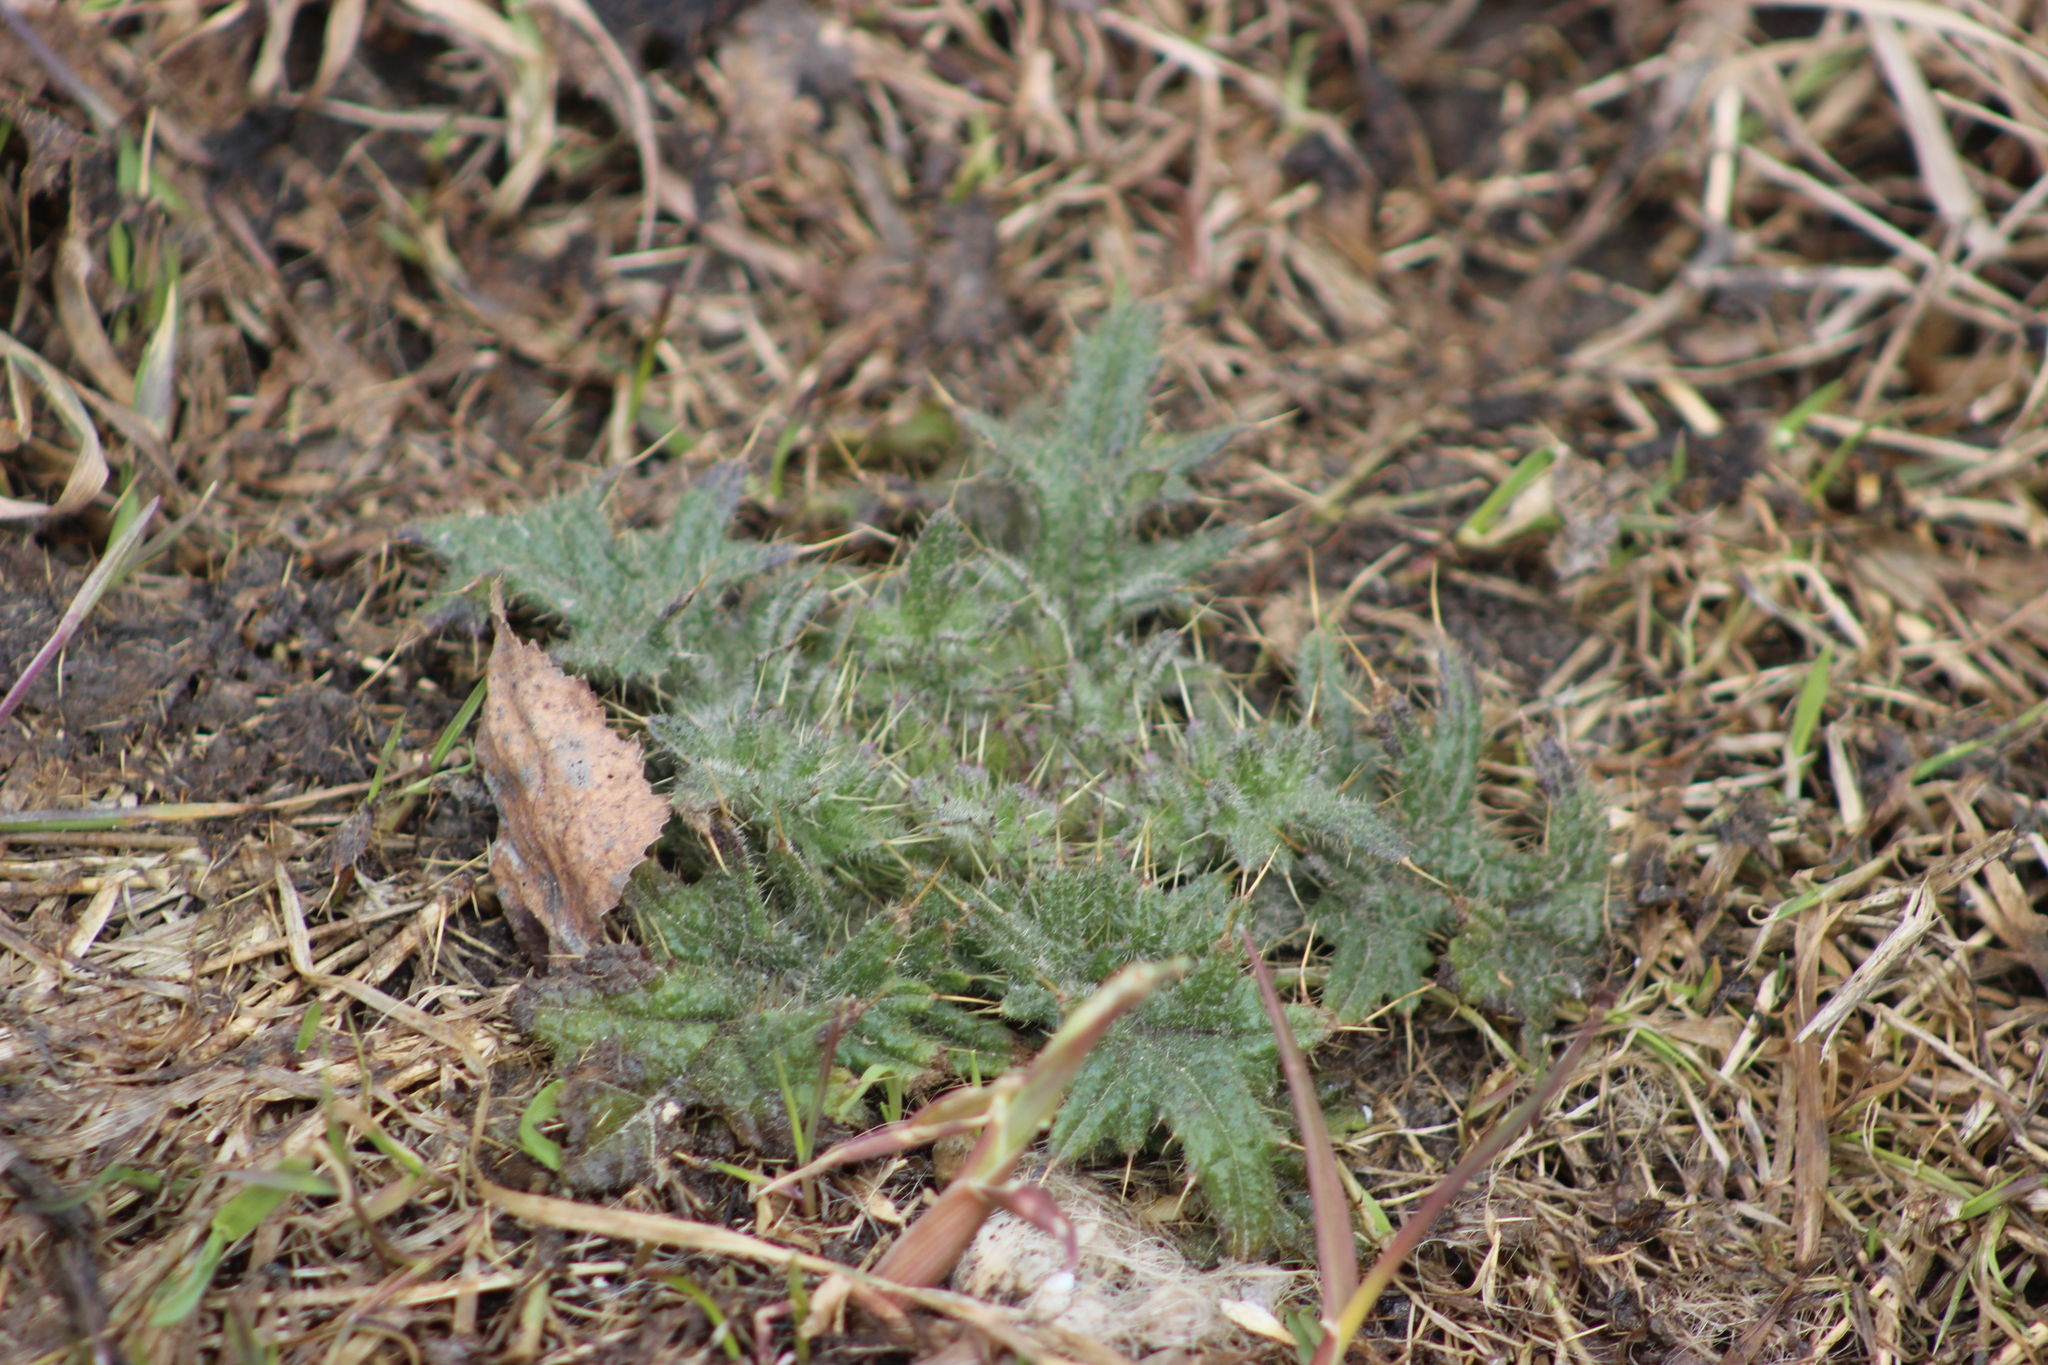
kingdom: Plantae
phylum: Tracheophyta
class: Magnoliopsida
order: Asterales
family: Asteraceae
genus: Cirsium
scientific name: Cirsium vulgare
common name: Bull thistle
